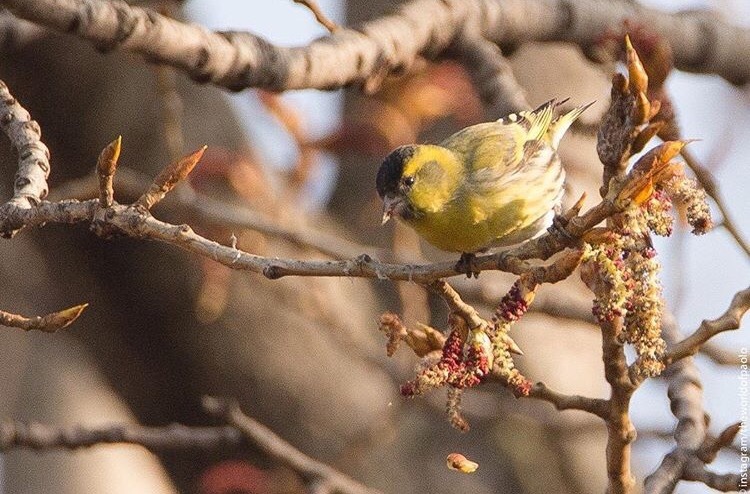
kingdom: Animalia
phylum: Chordata
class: Aves
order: Passeriformes
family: Fringillidae
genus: Spinus
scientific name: Spinus spinus
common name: Eurasian siskin
